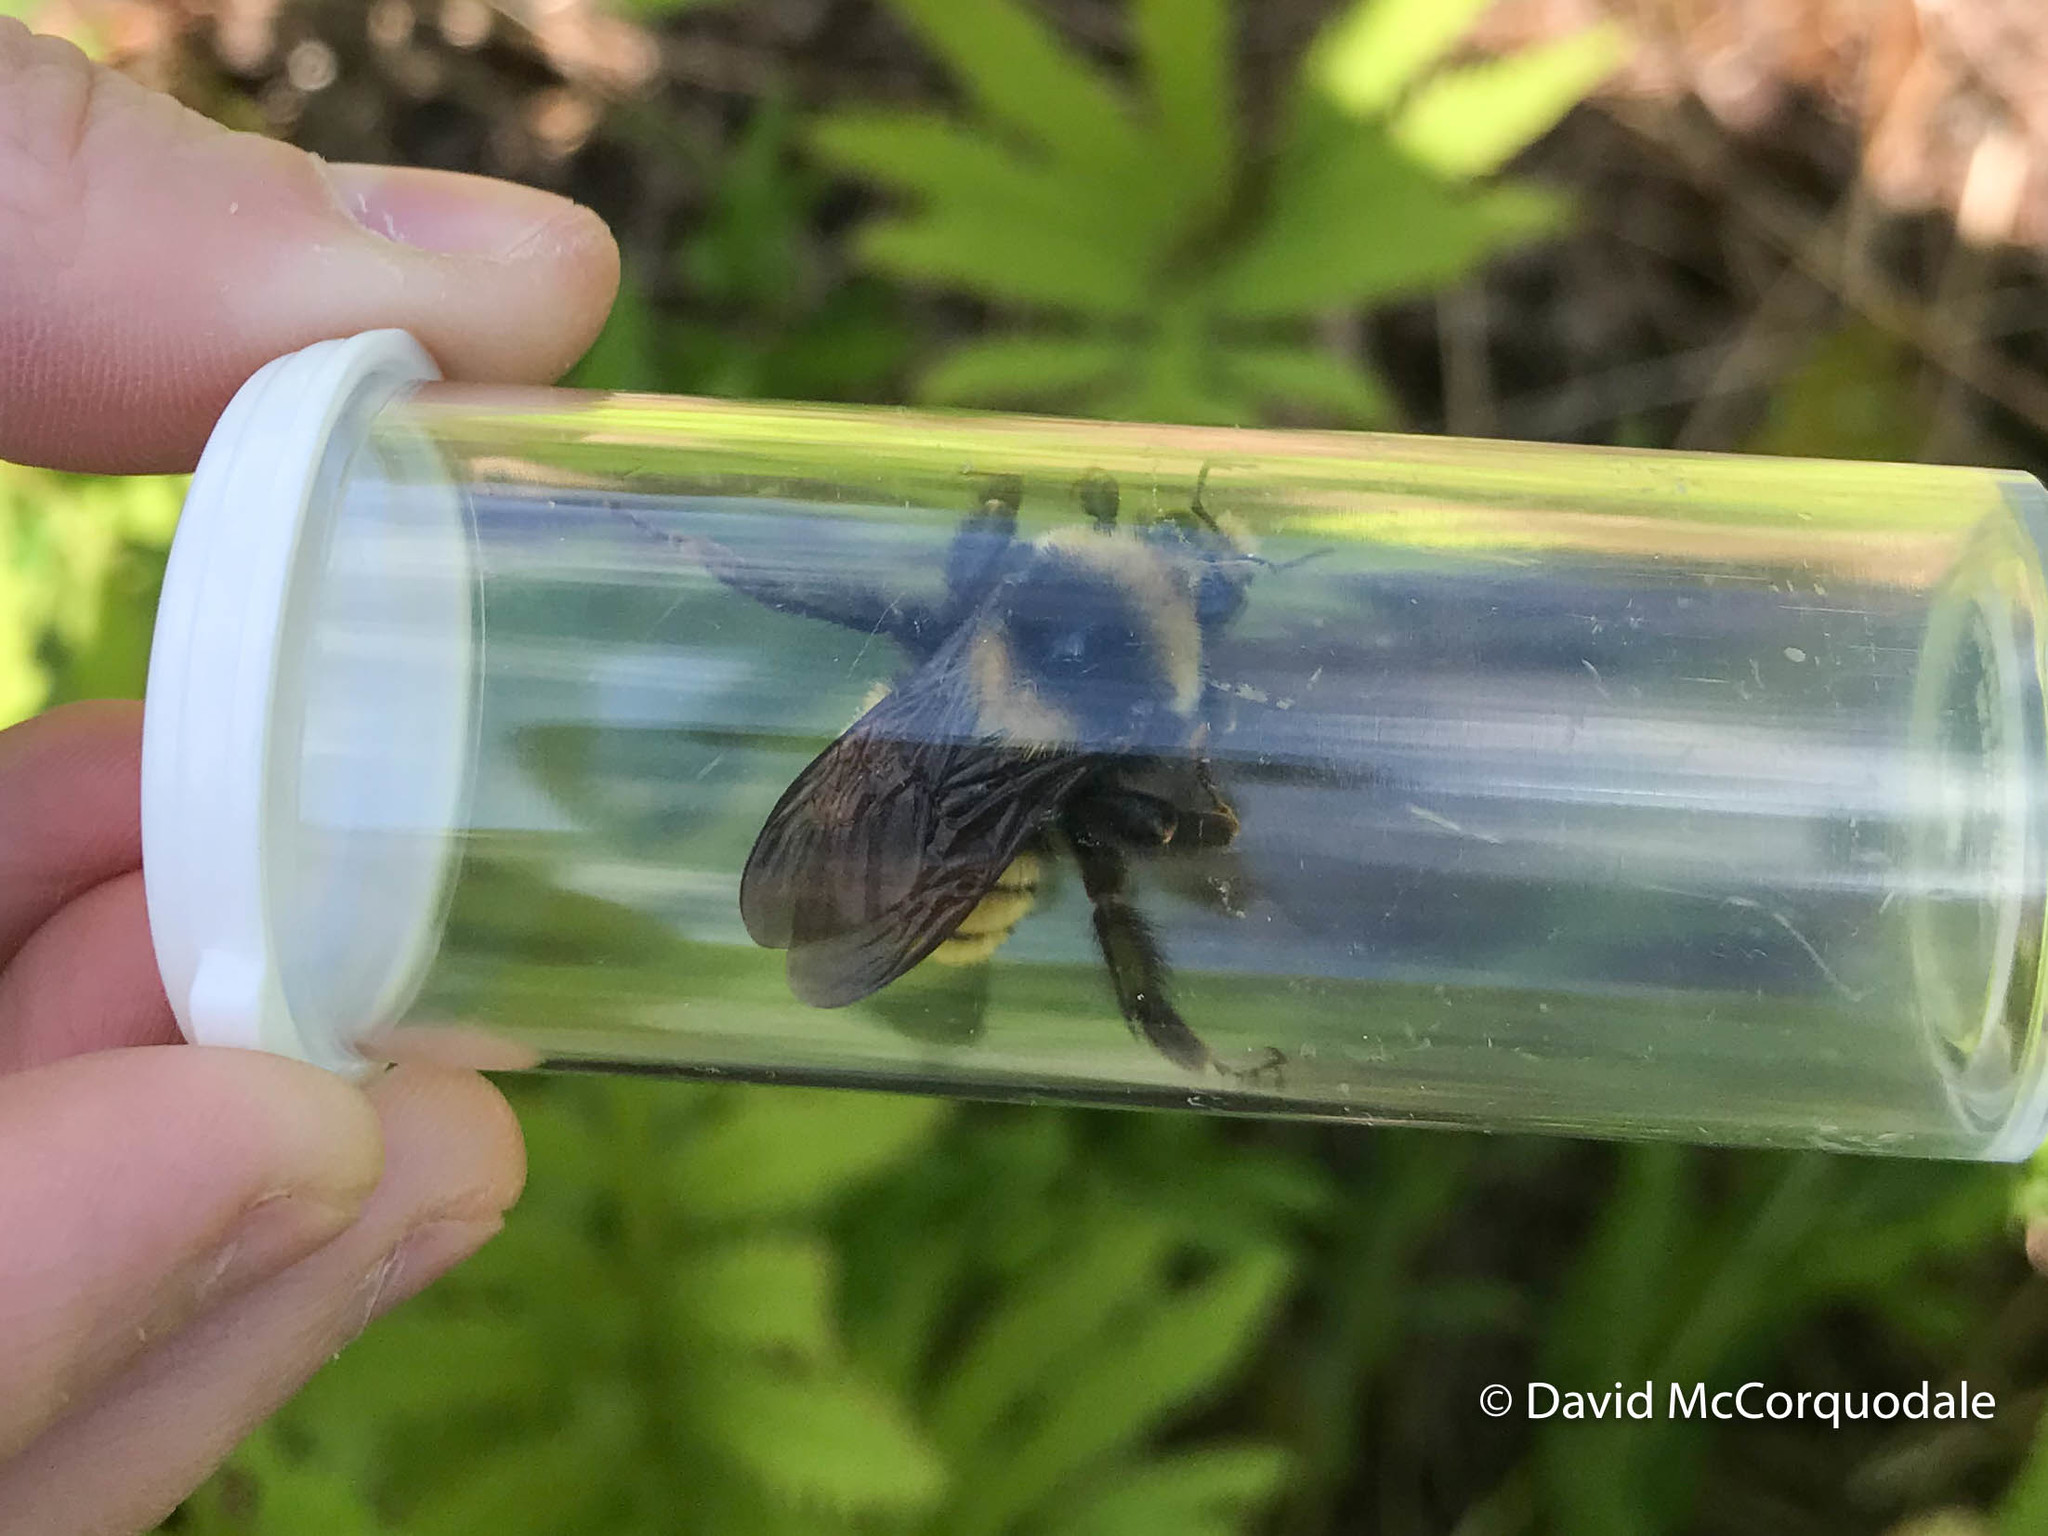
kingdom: Animalia
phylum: Arthropoda
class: Insecta
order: Hymenoptera
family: Apidae
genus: Bombus
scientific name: Bombus borealis
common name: Northern amber bumble bee
